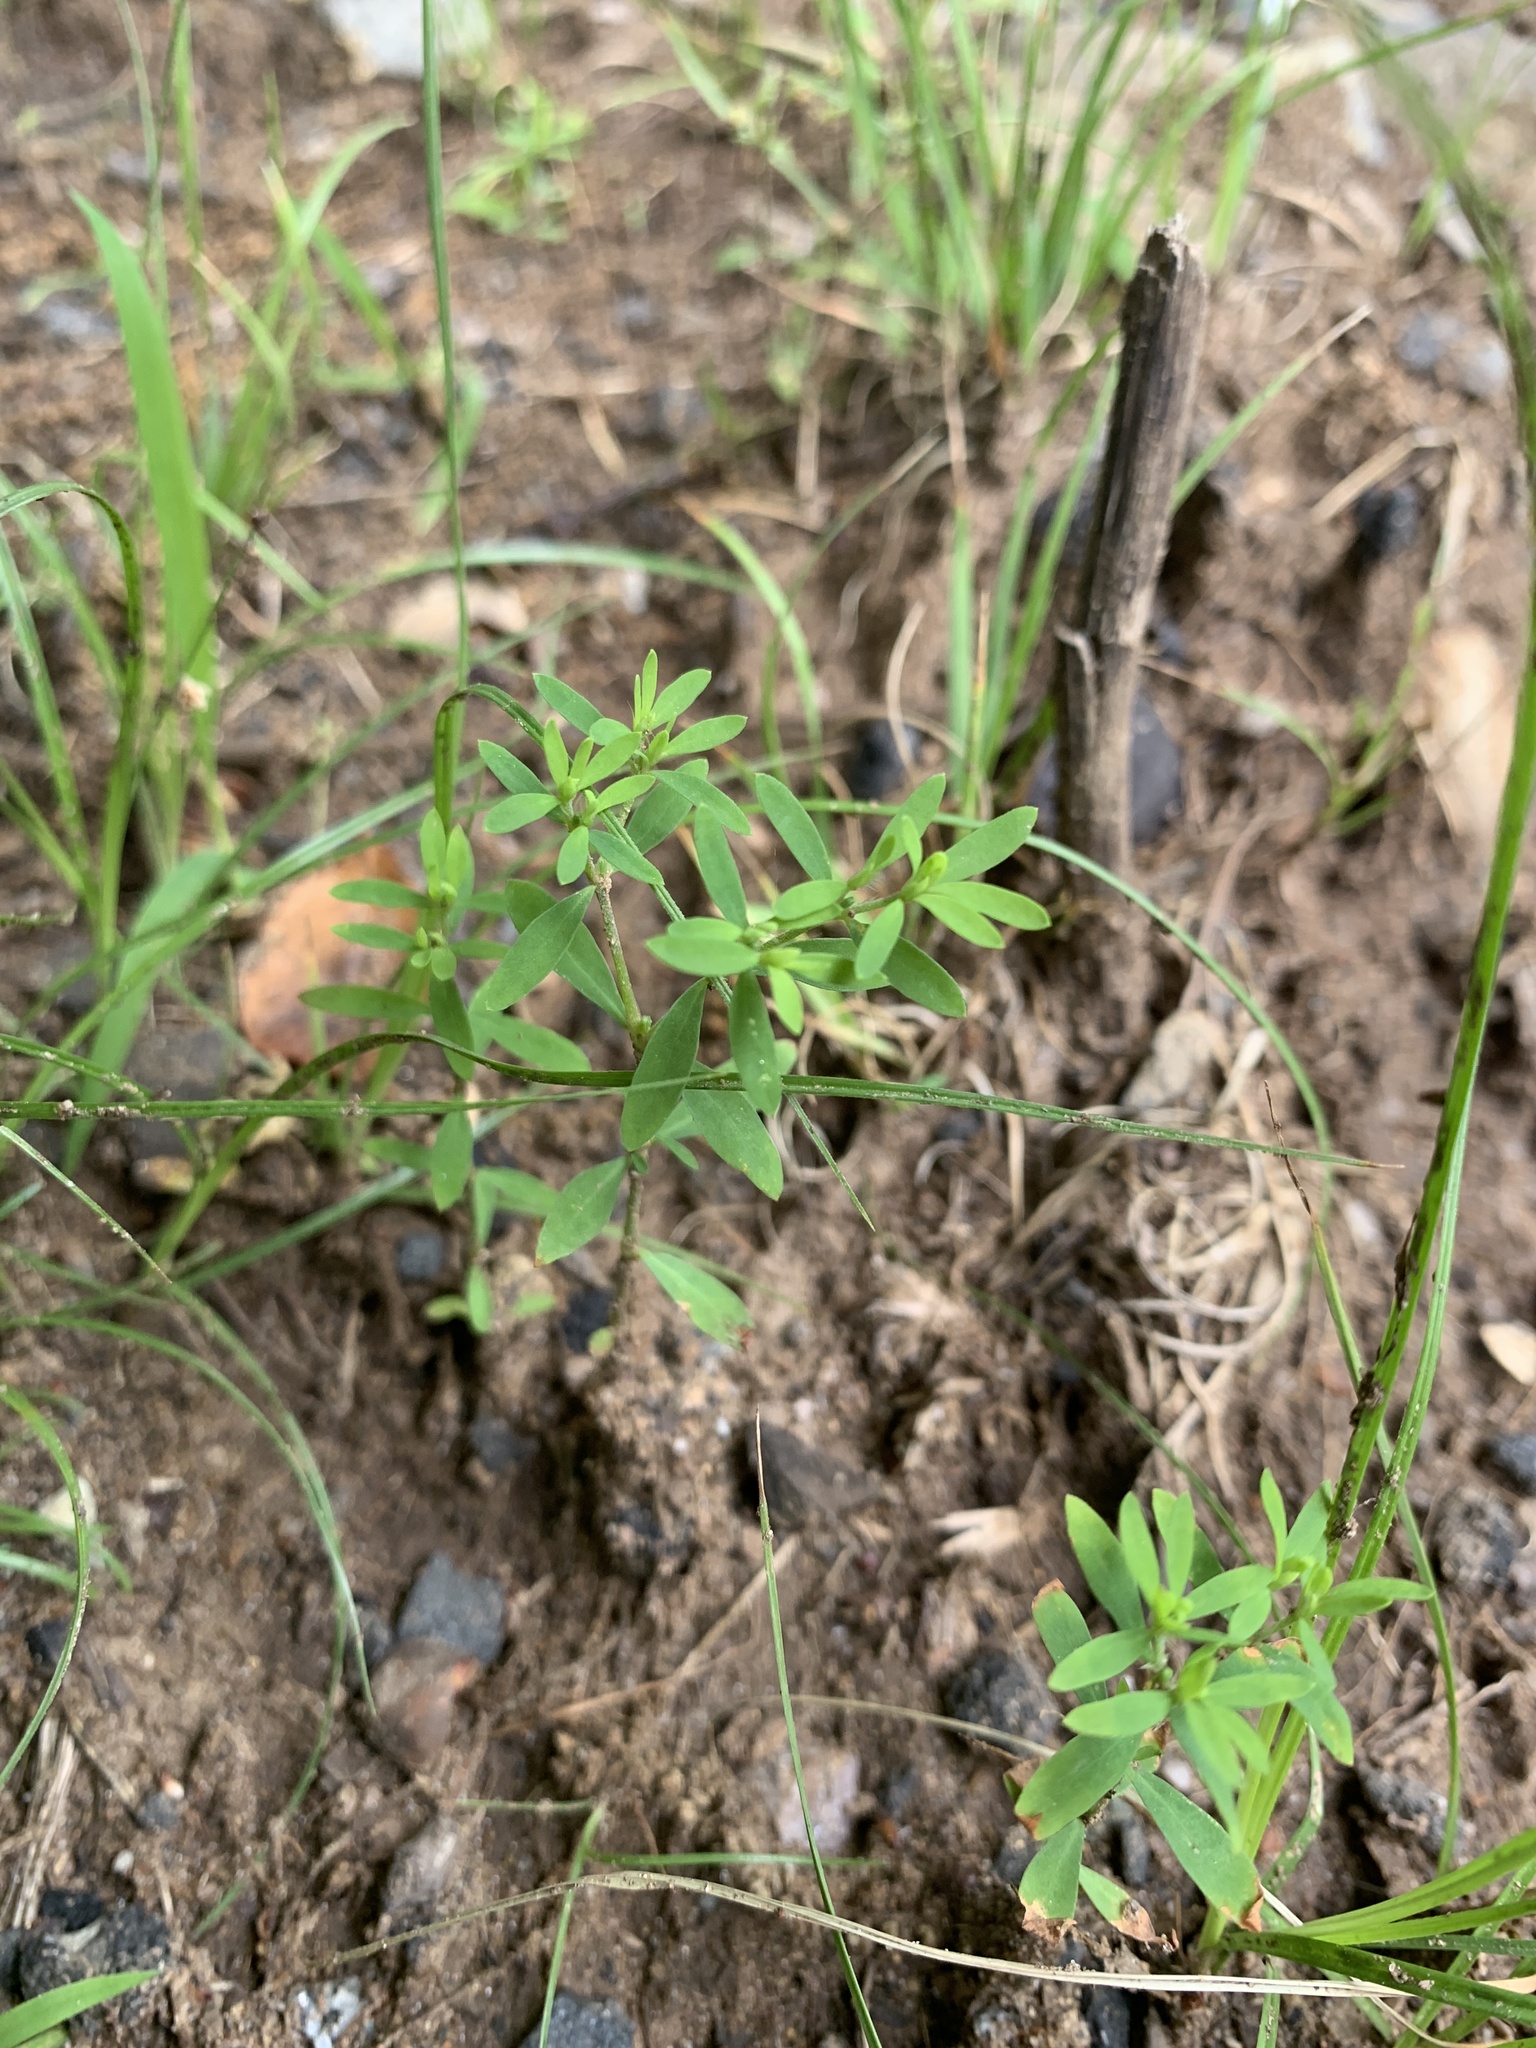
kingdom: Plantae
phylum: Tracheophyta
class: Magnoliopsida
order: Caryophyllales
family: Caryophyllaceae
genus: Paronychia
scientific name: Paronychia fastigiata
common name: Branching forked whitlow-wort
